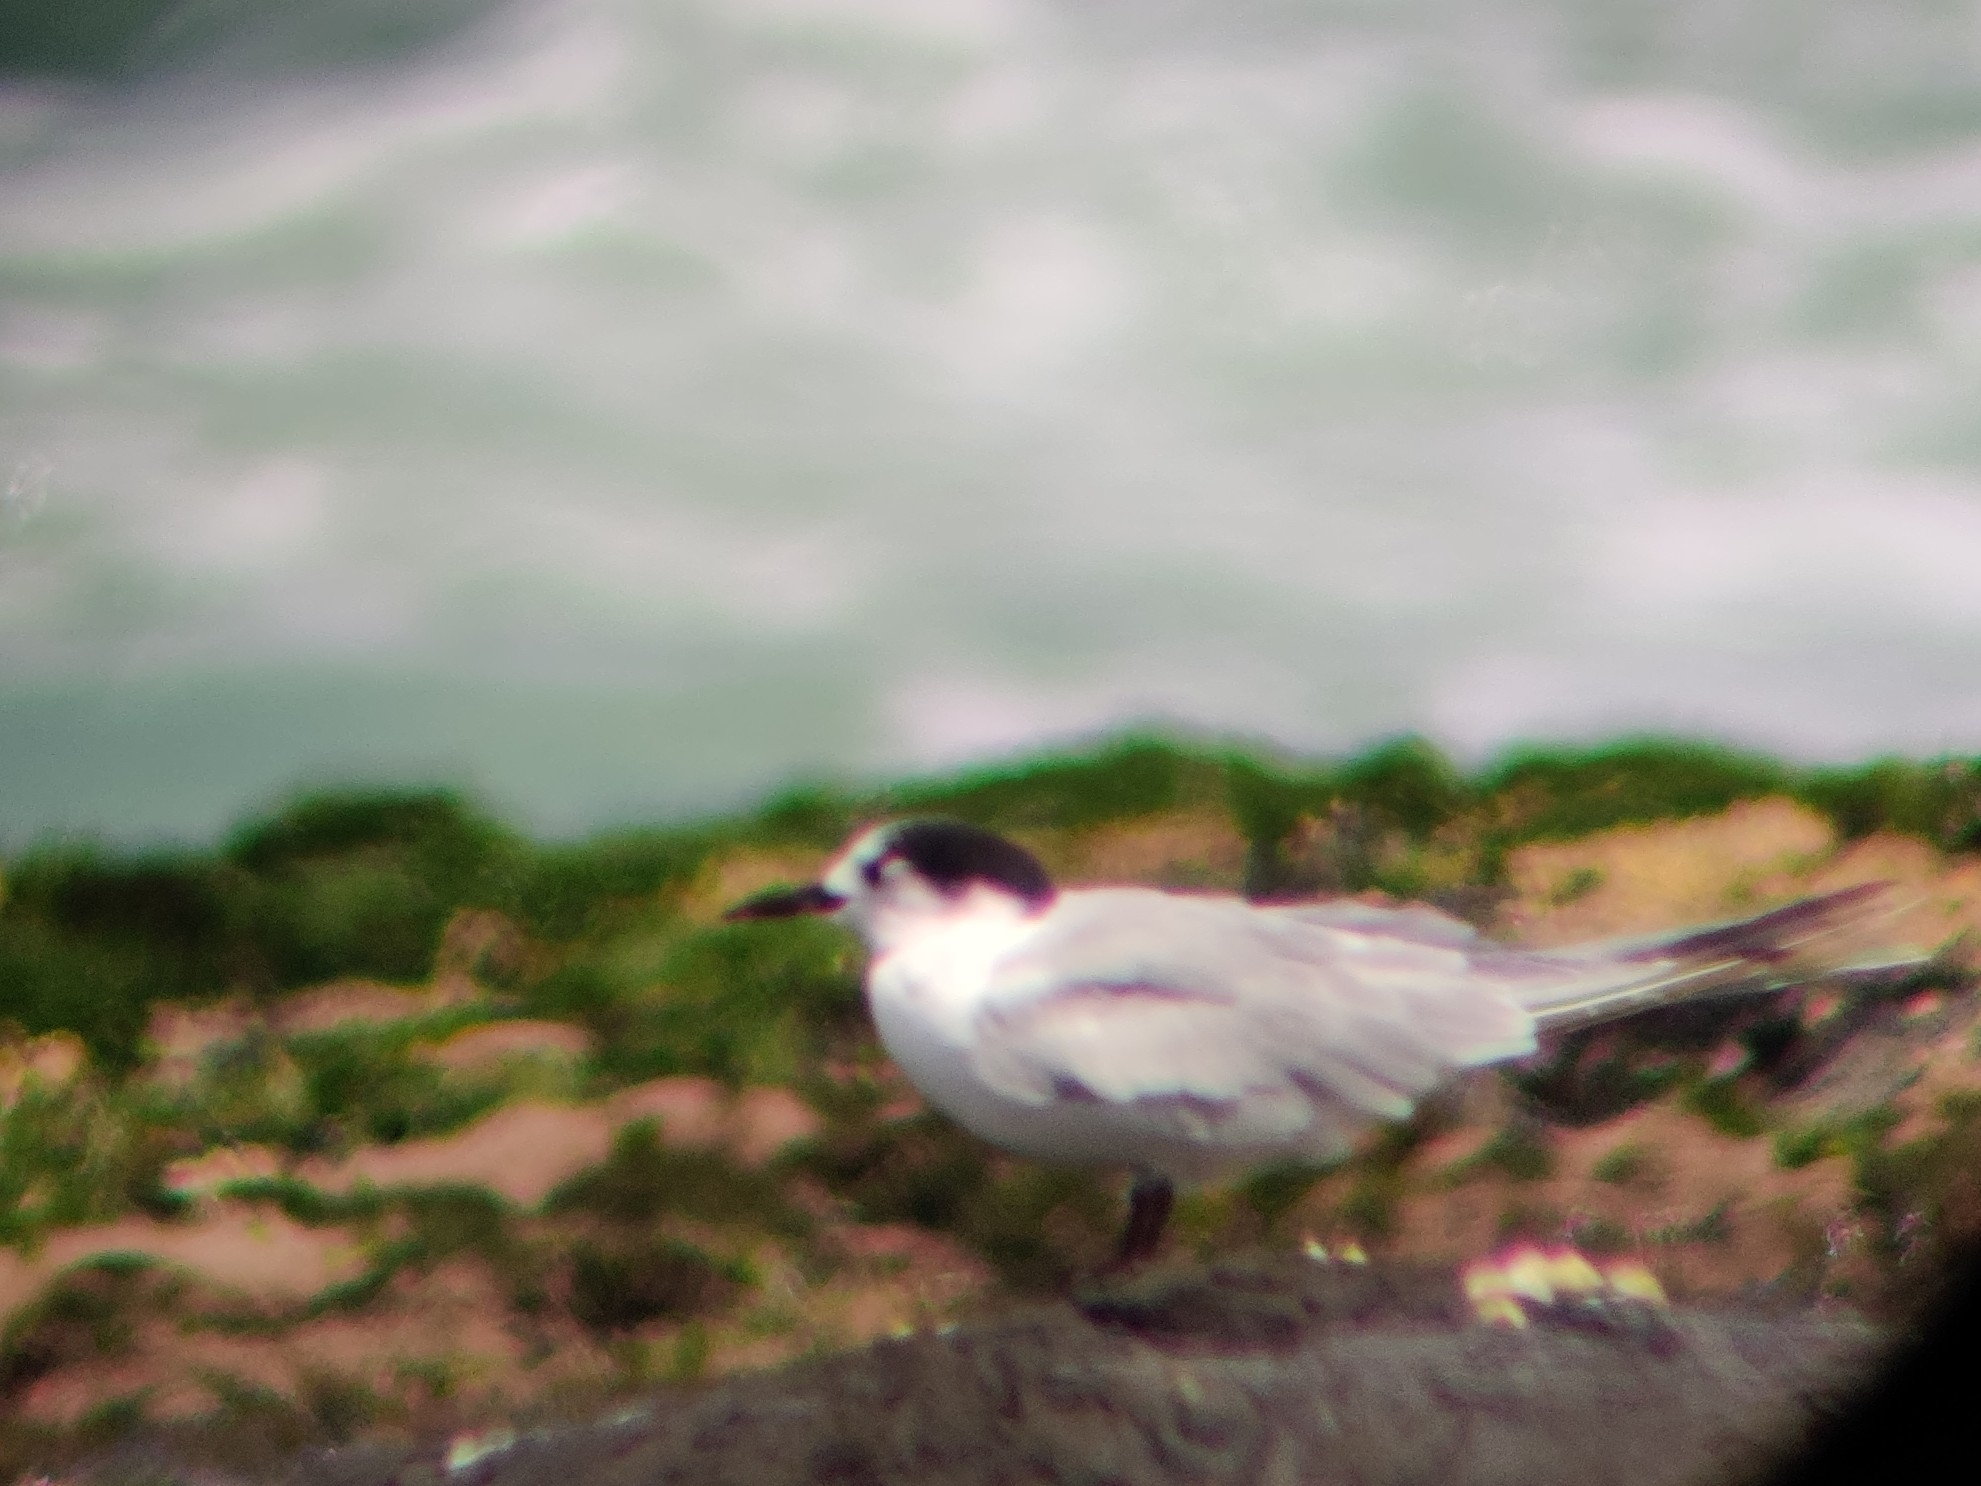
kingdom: Animalia
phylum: Chordata
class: Aves
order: Charadriiformes
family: Laridae
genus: Sterna
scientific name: Sterna hirundo
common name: Common tern
